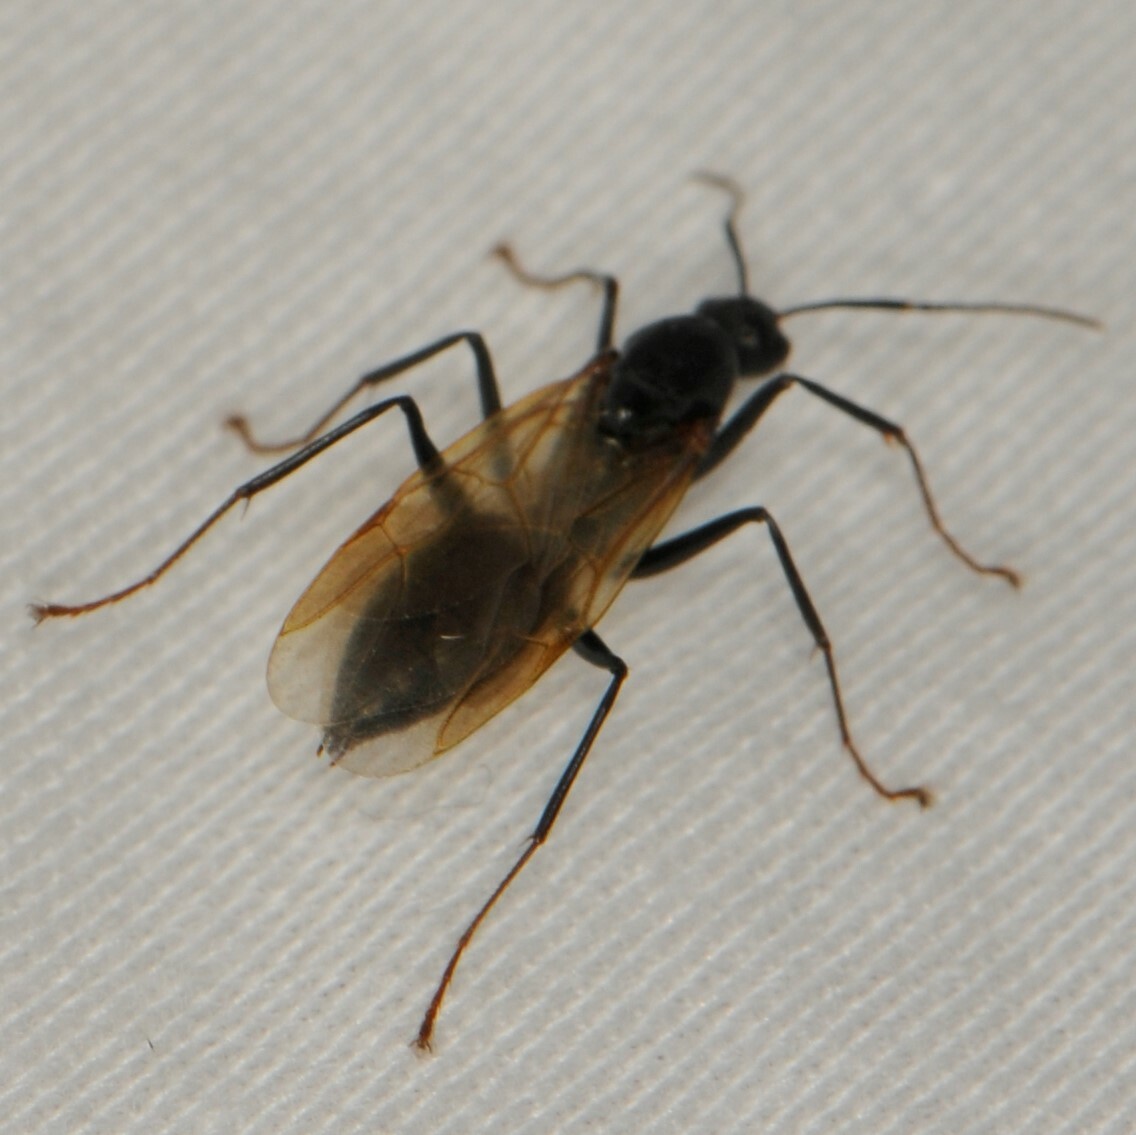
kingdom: Animalia
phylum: Arthropoda
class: Insecta
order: Hymenoptera
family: Formicidae
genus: Camponotus
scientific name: Camponotus
